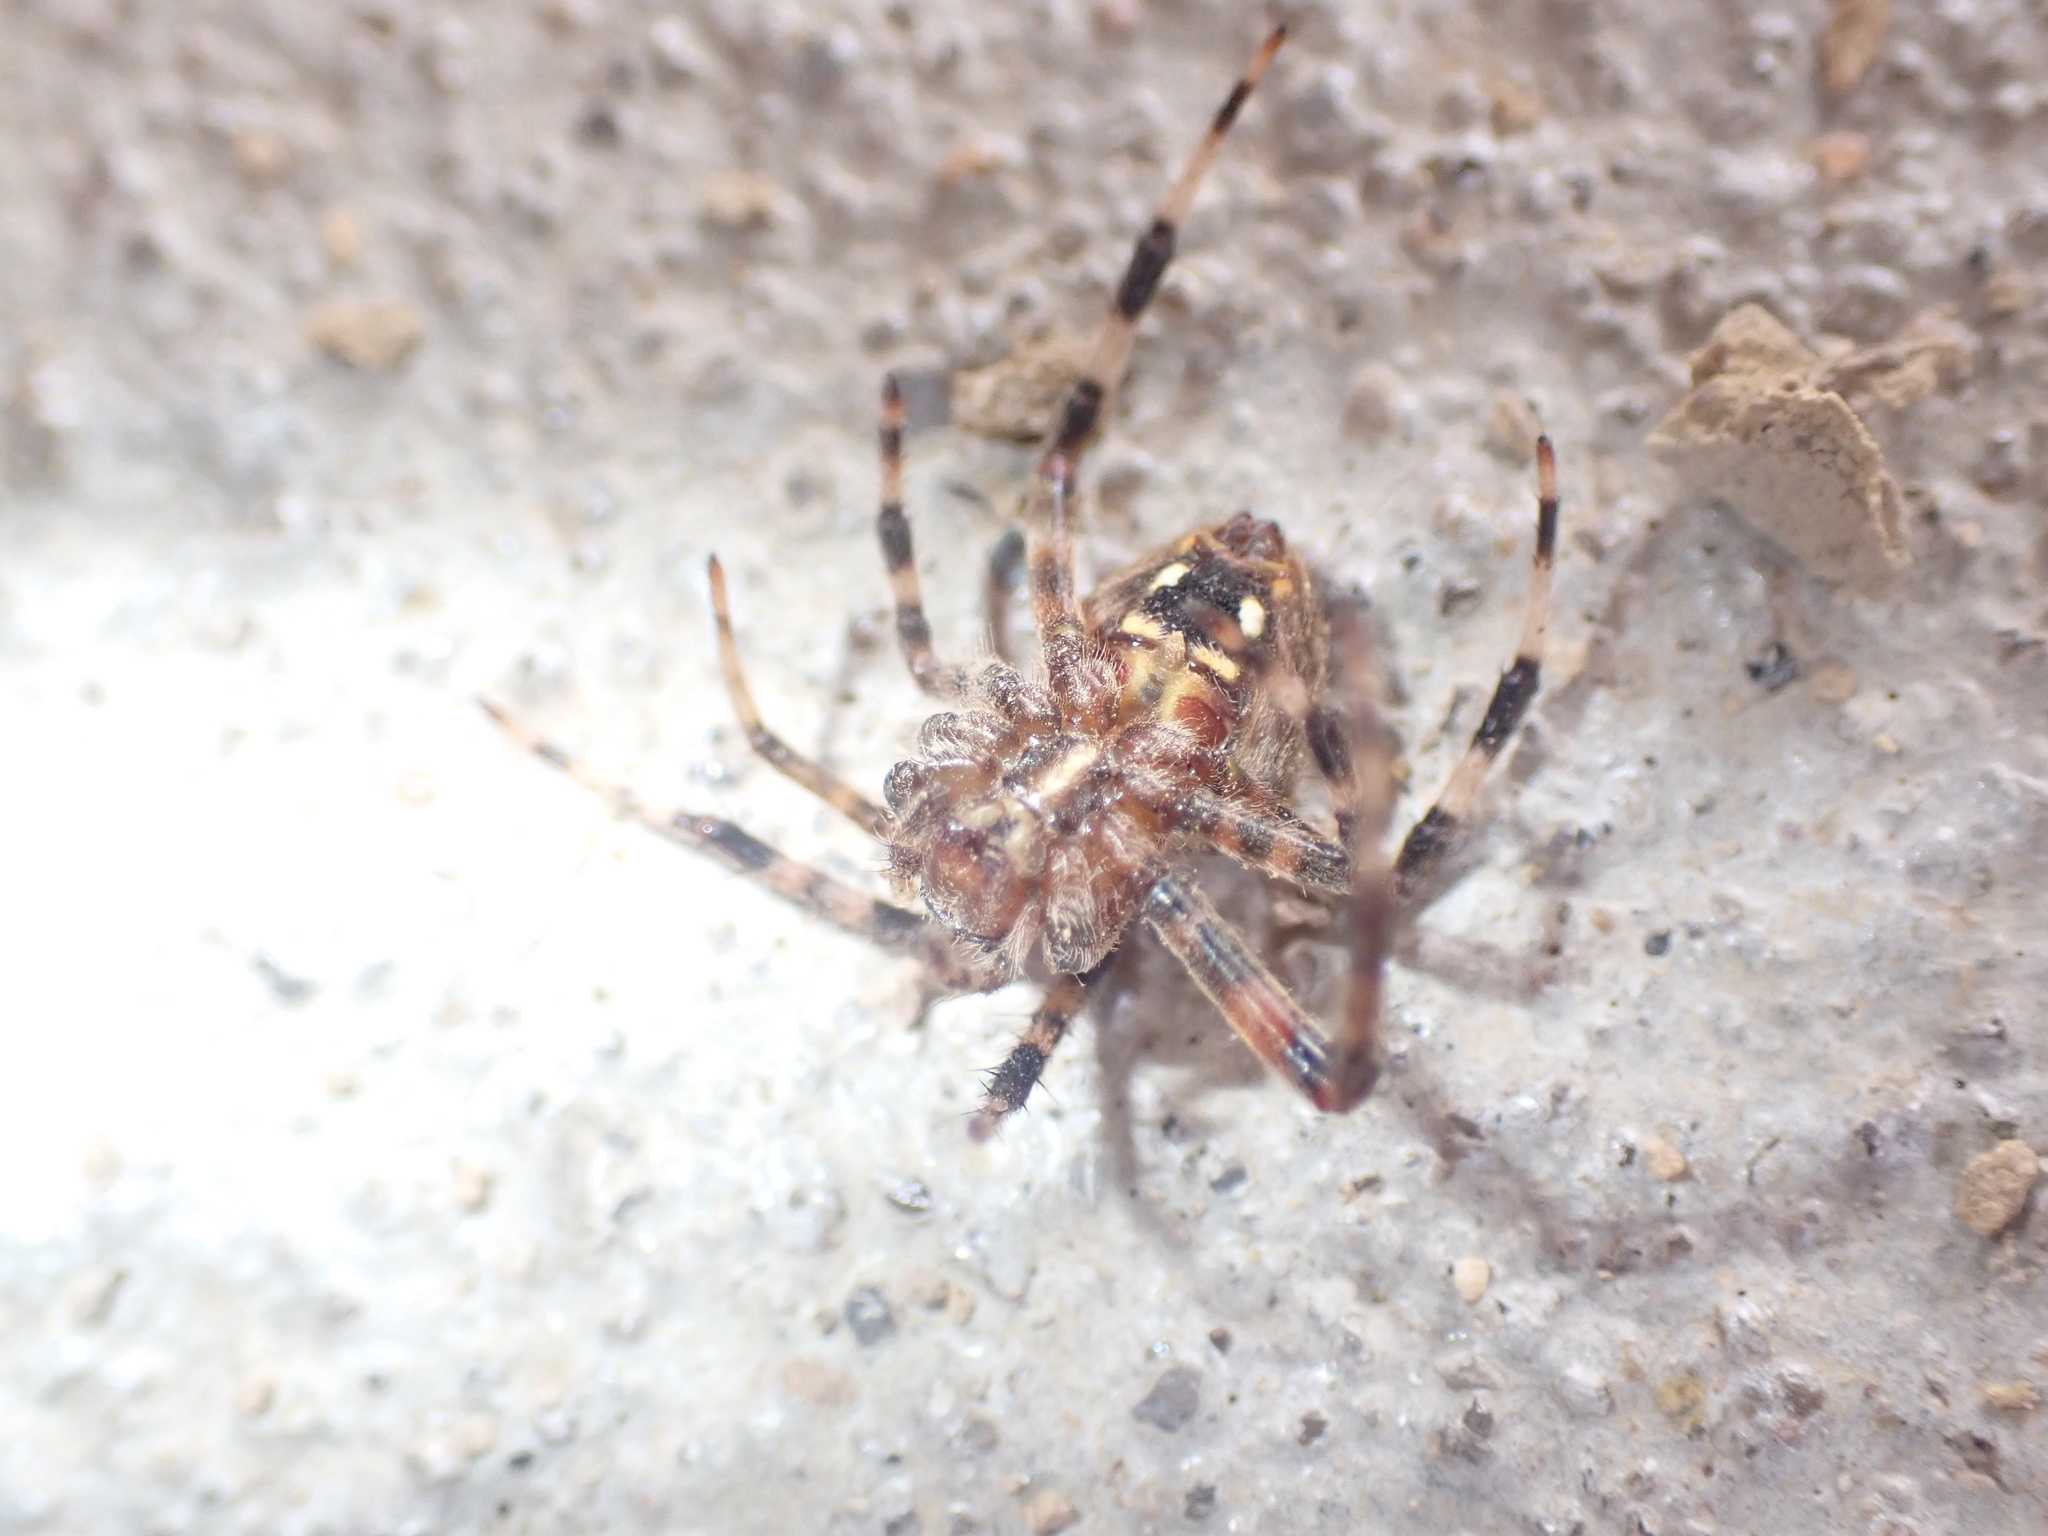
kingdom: Animalia
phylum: Arthropoda
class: Arachnida
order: Araneae
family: Araneidae
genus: Neoscona
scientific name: Neoscona crucifera
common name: Spotted orbweaver
